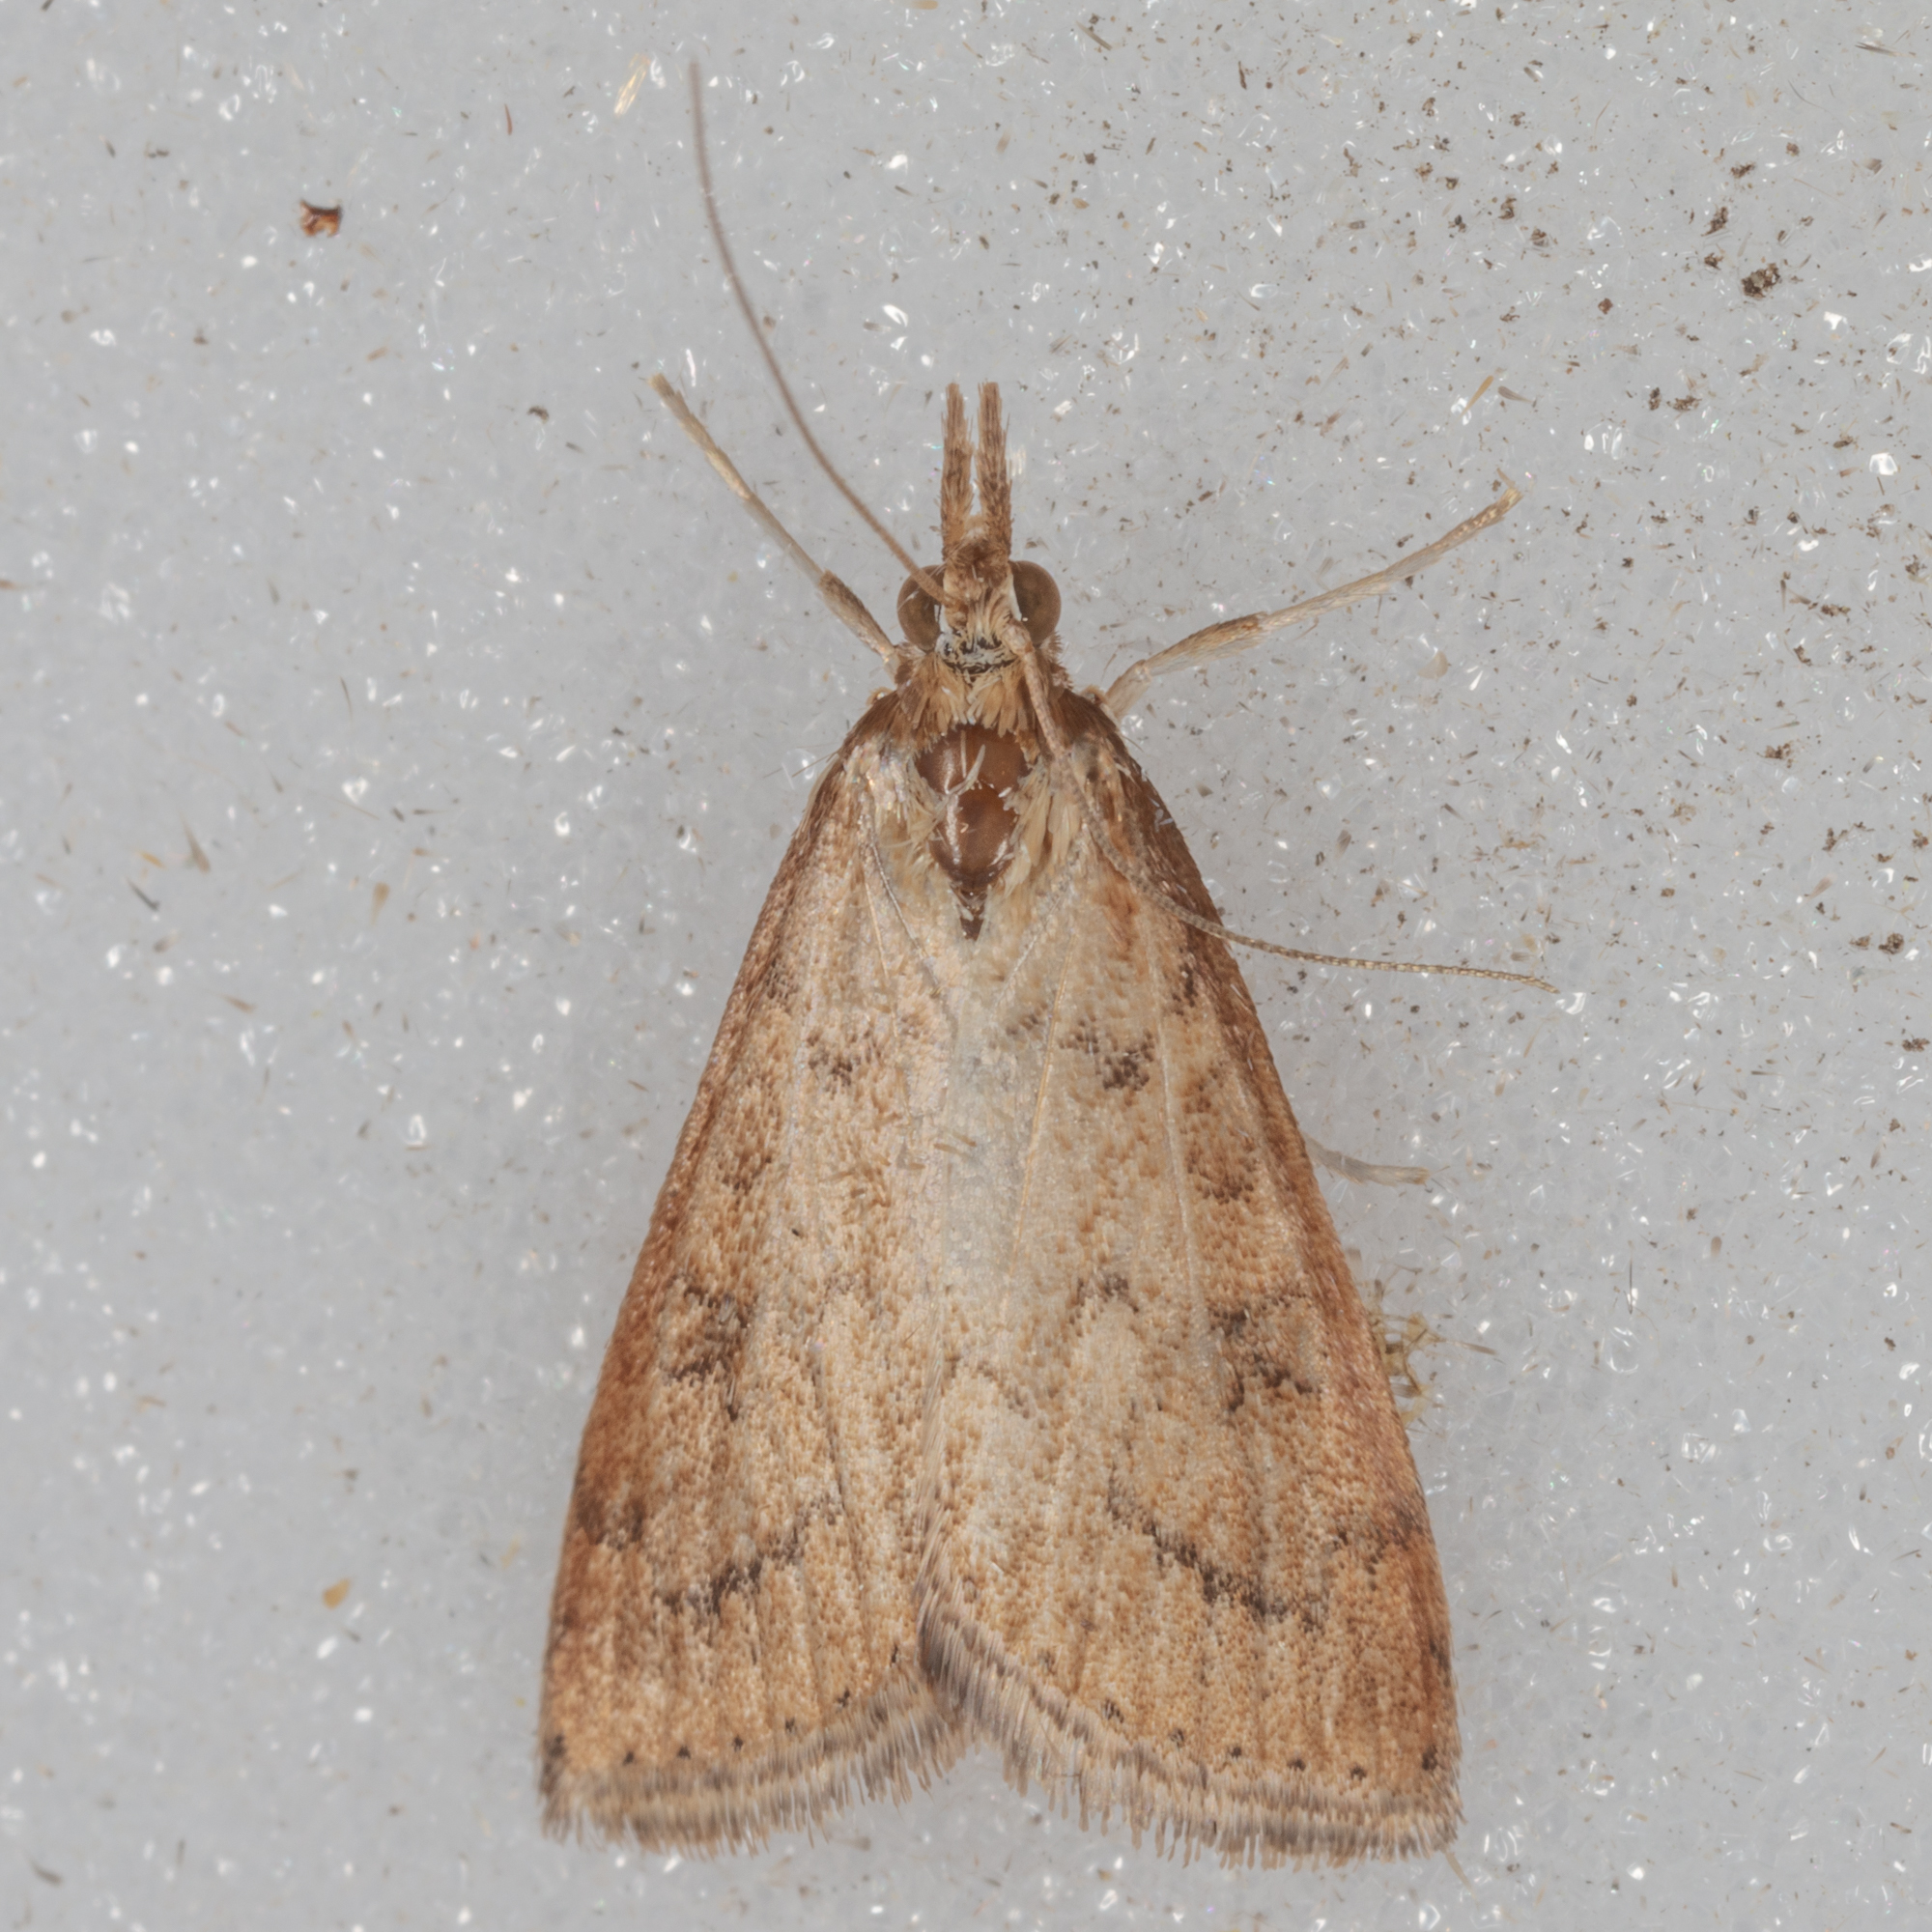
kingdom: Animalia
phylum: Arthropoda
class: Insecta
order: Lepidoptera
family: Crambidae
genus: Udea
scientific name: Udea rubigalis
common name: Celery leaftier moth
